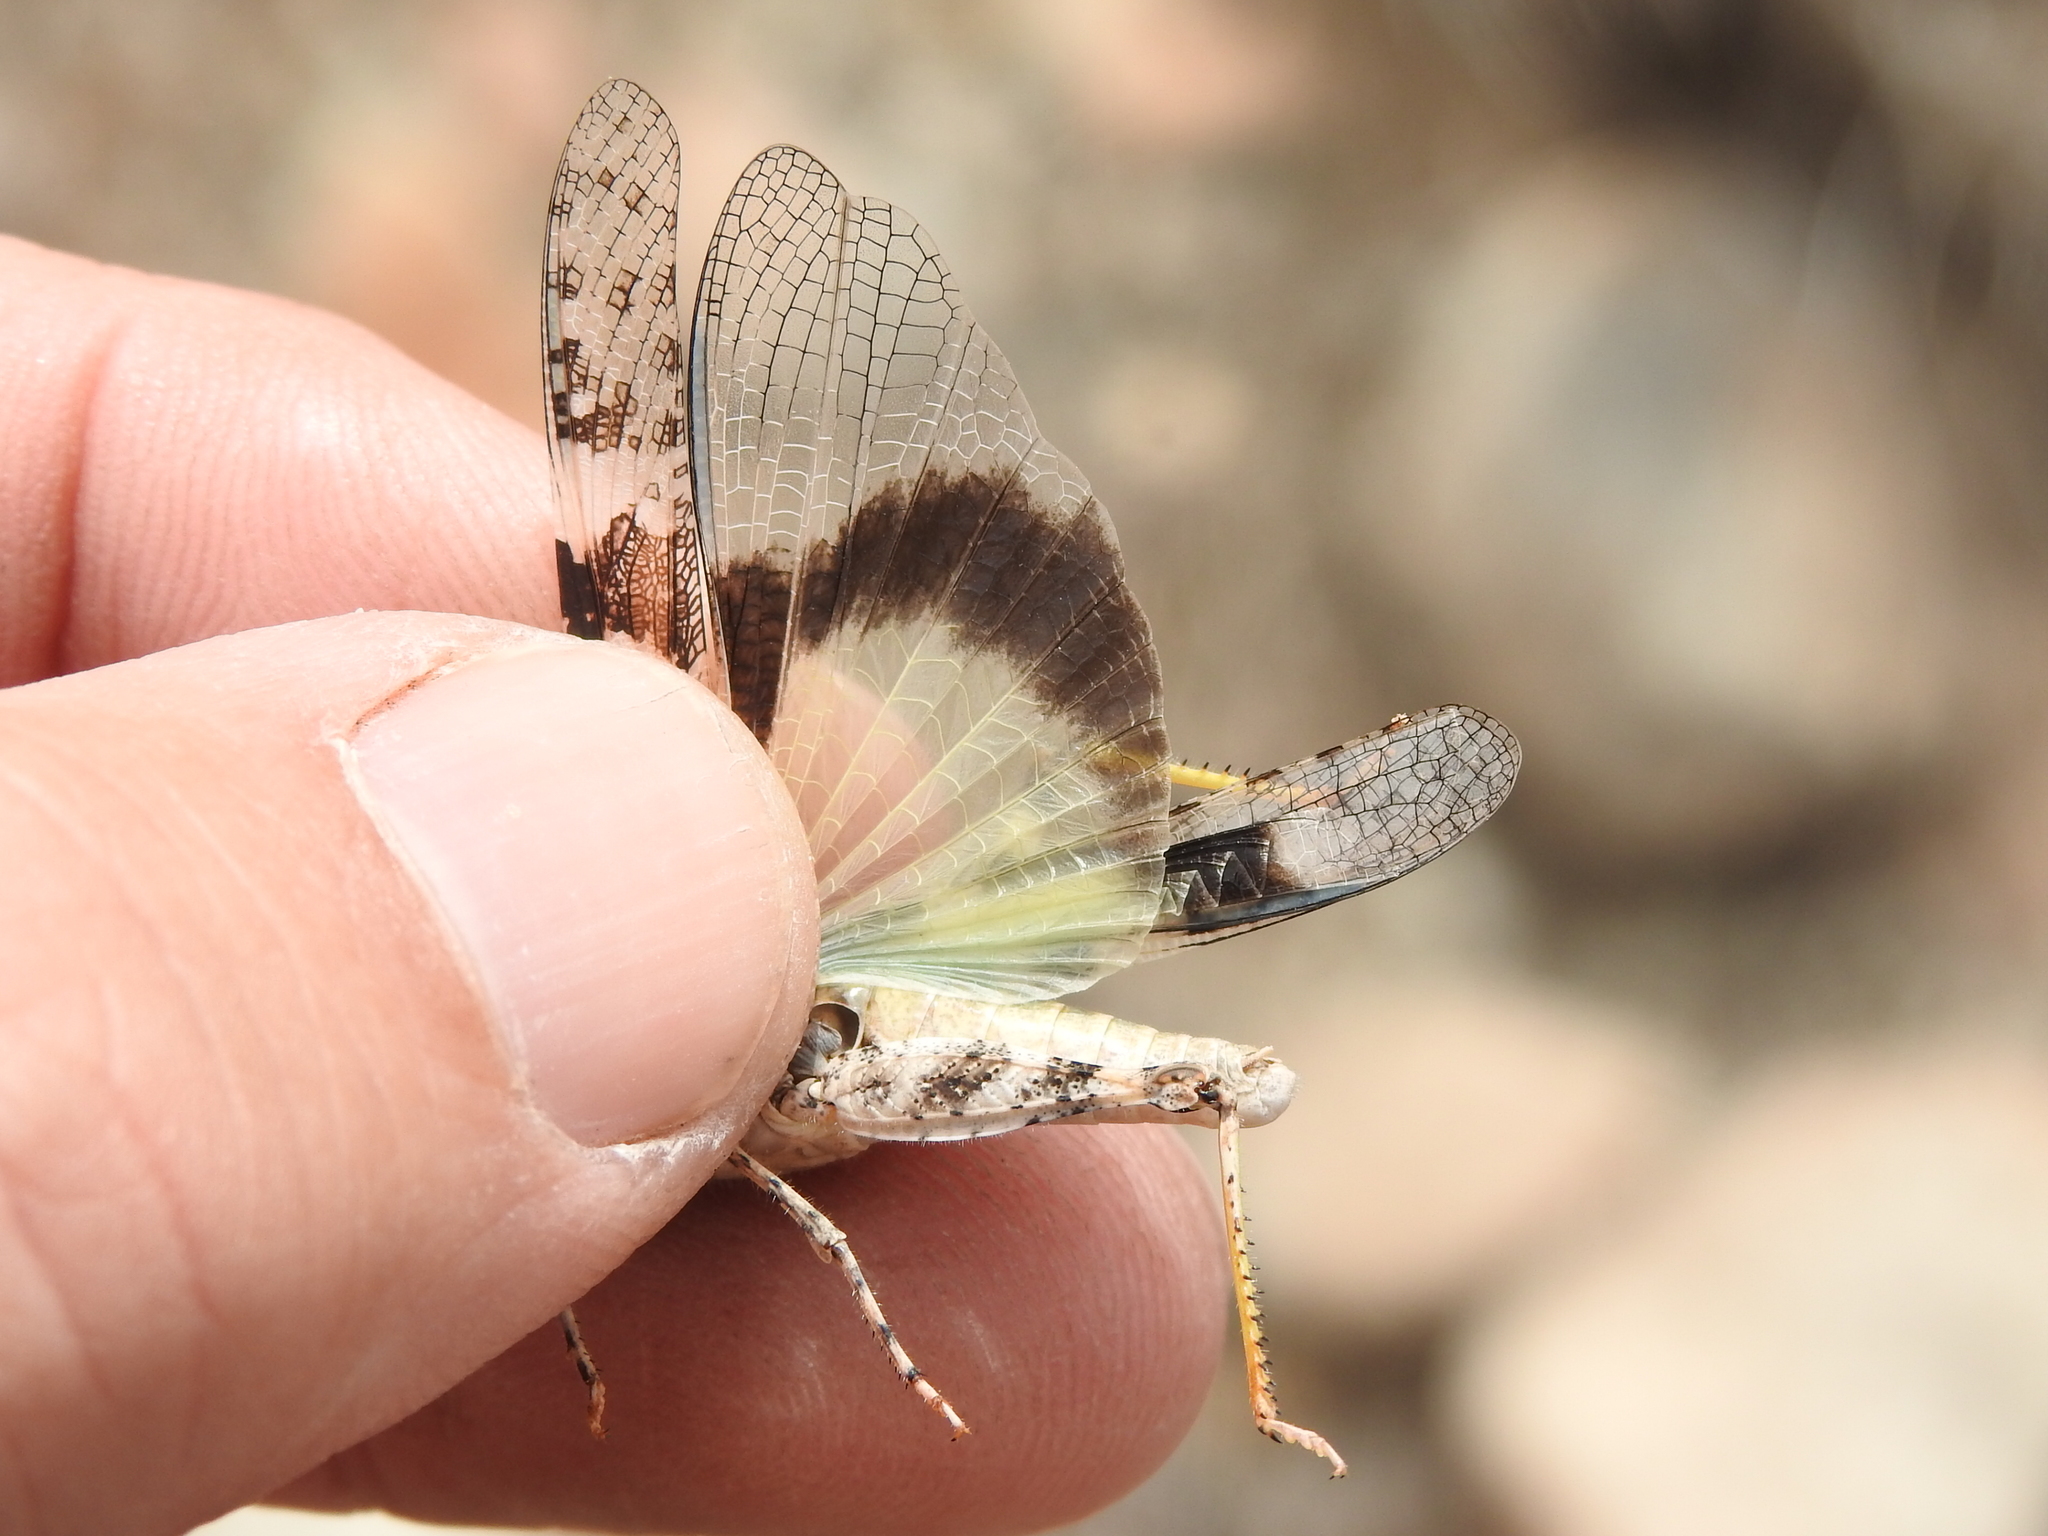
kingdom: Animalia
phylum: Arthropoda
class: Insecta
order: Orthoptera
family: Acrididae
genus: Trimerotropis
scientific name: Trimerotropis pallidipennis
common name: Pallid-winged grasshopper
